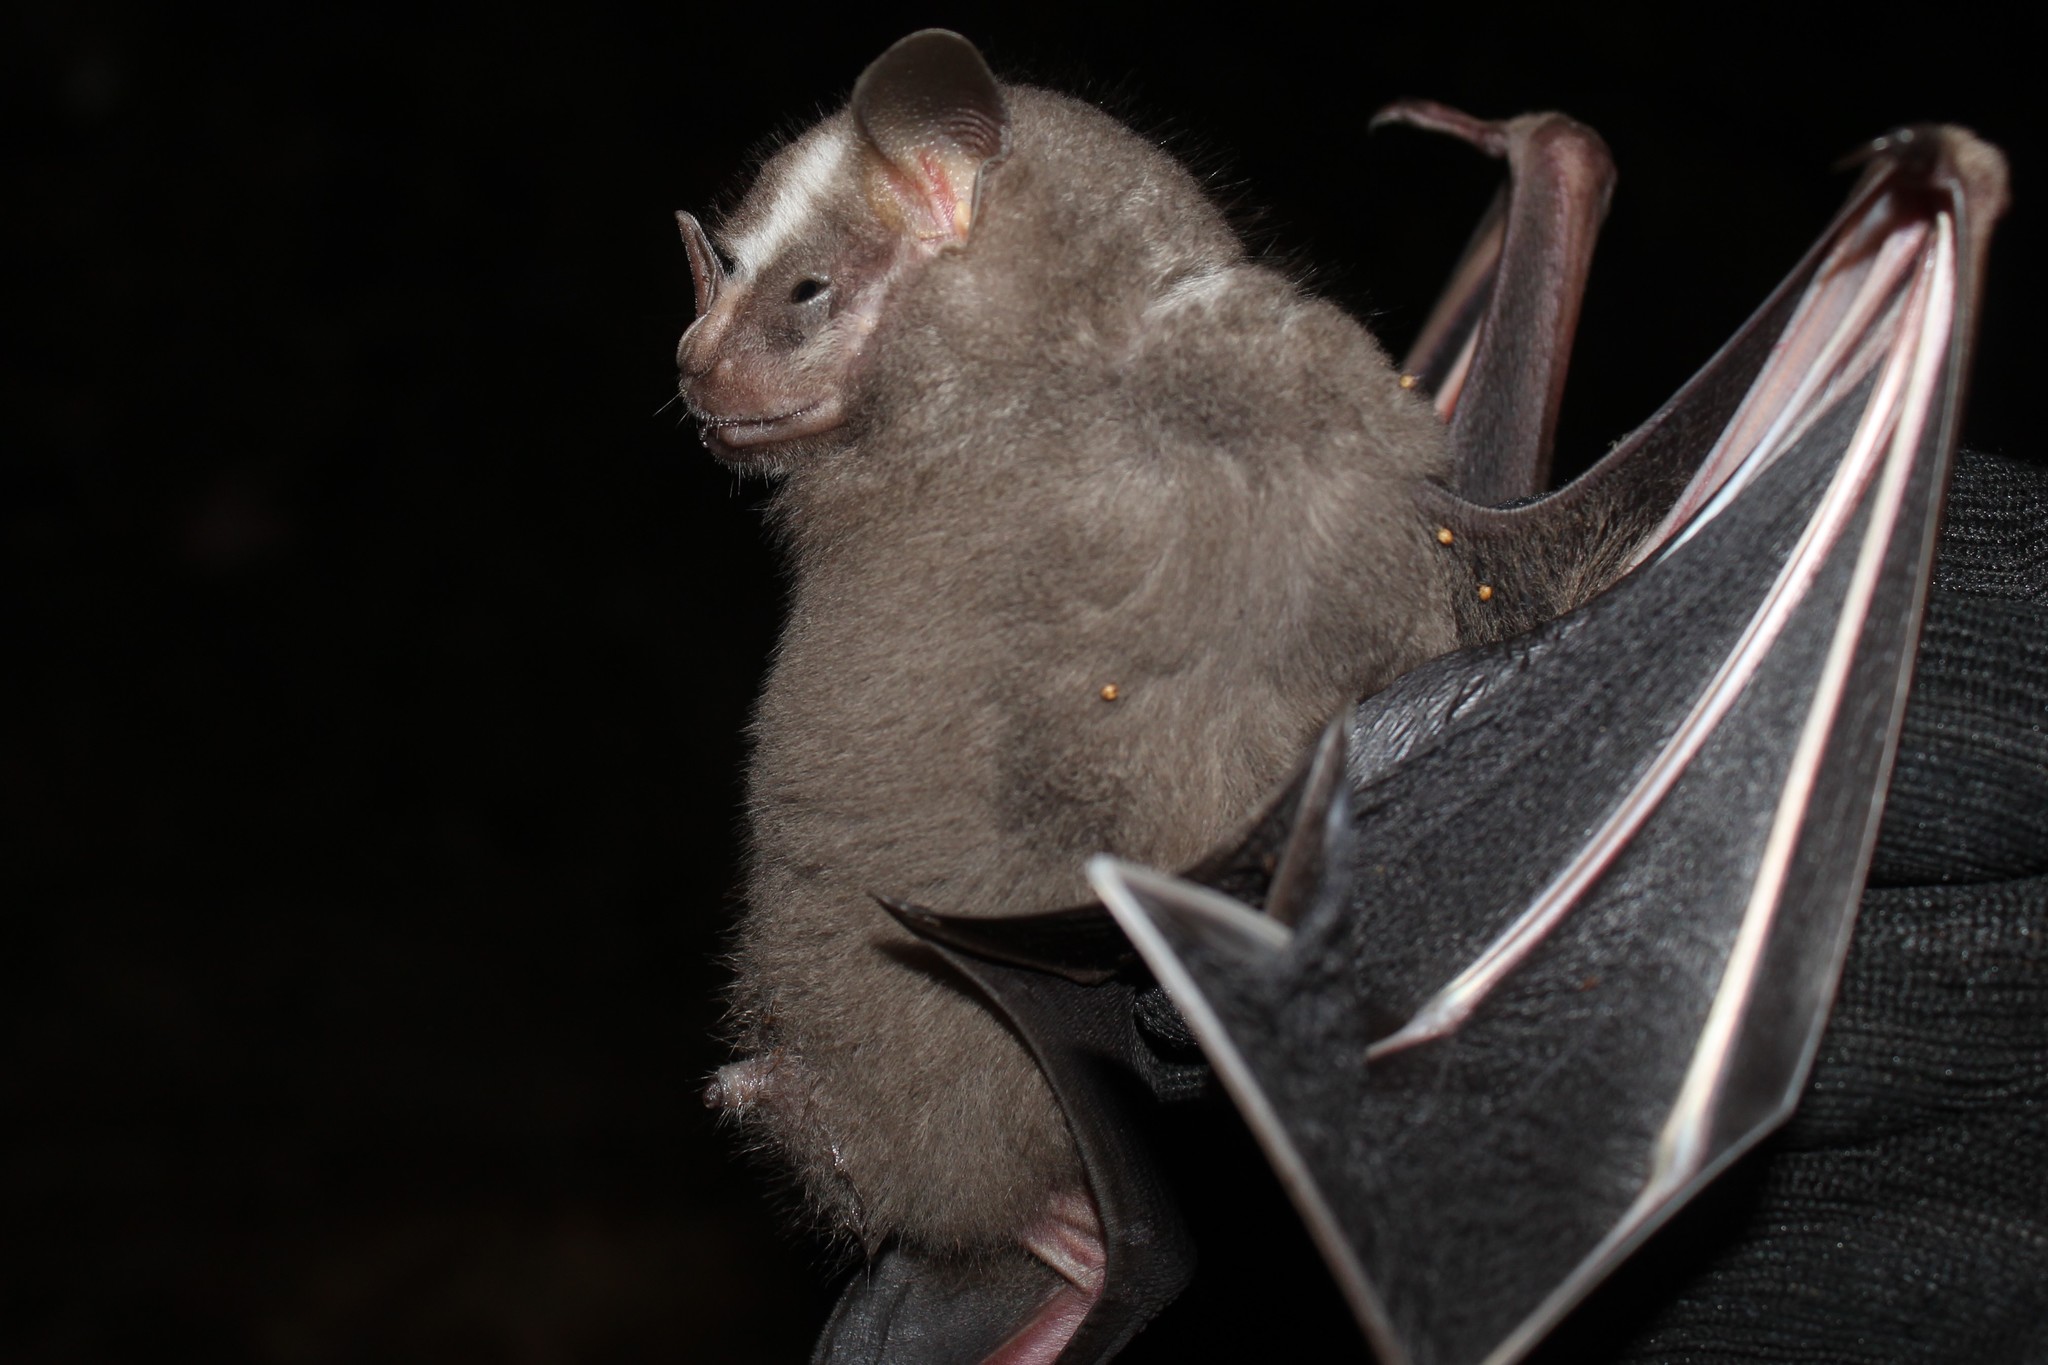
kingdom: Animalia
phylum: Chordata
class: Mammalia
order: Chiroptera
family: Phyllostomidae
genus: Artibeus
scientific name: Artibeus lituratus
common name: Great fruit-eating bat
